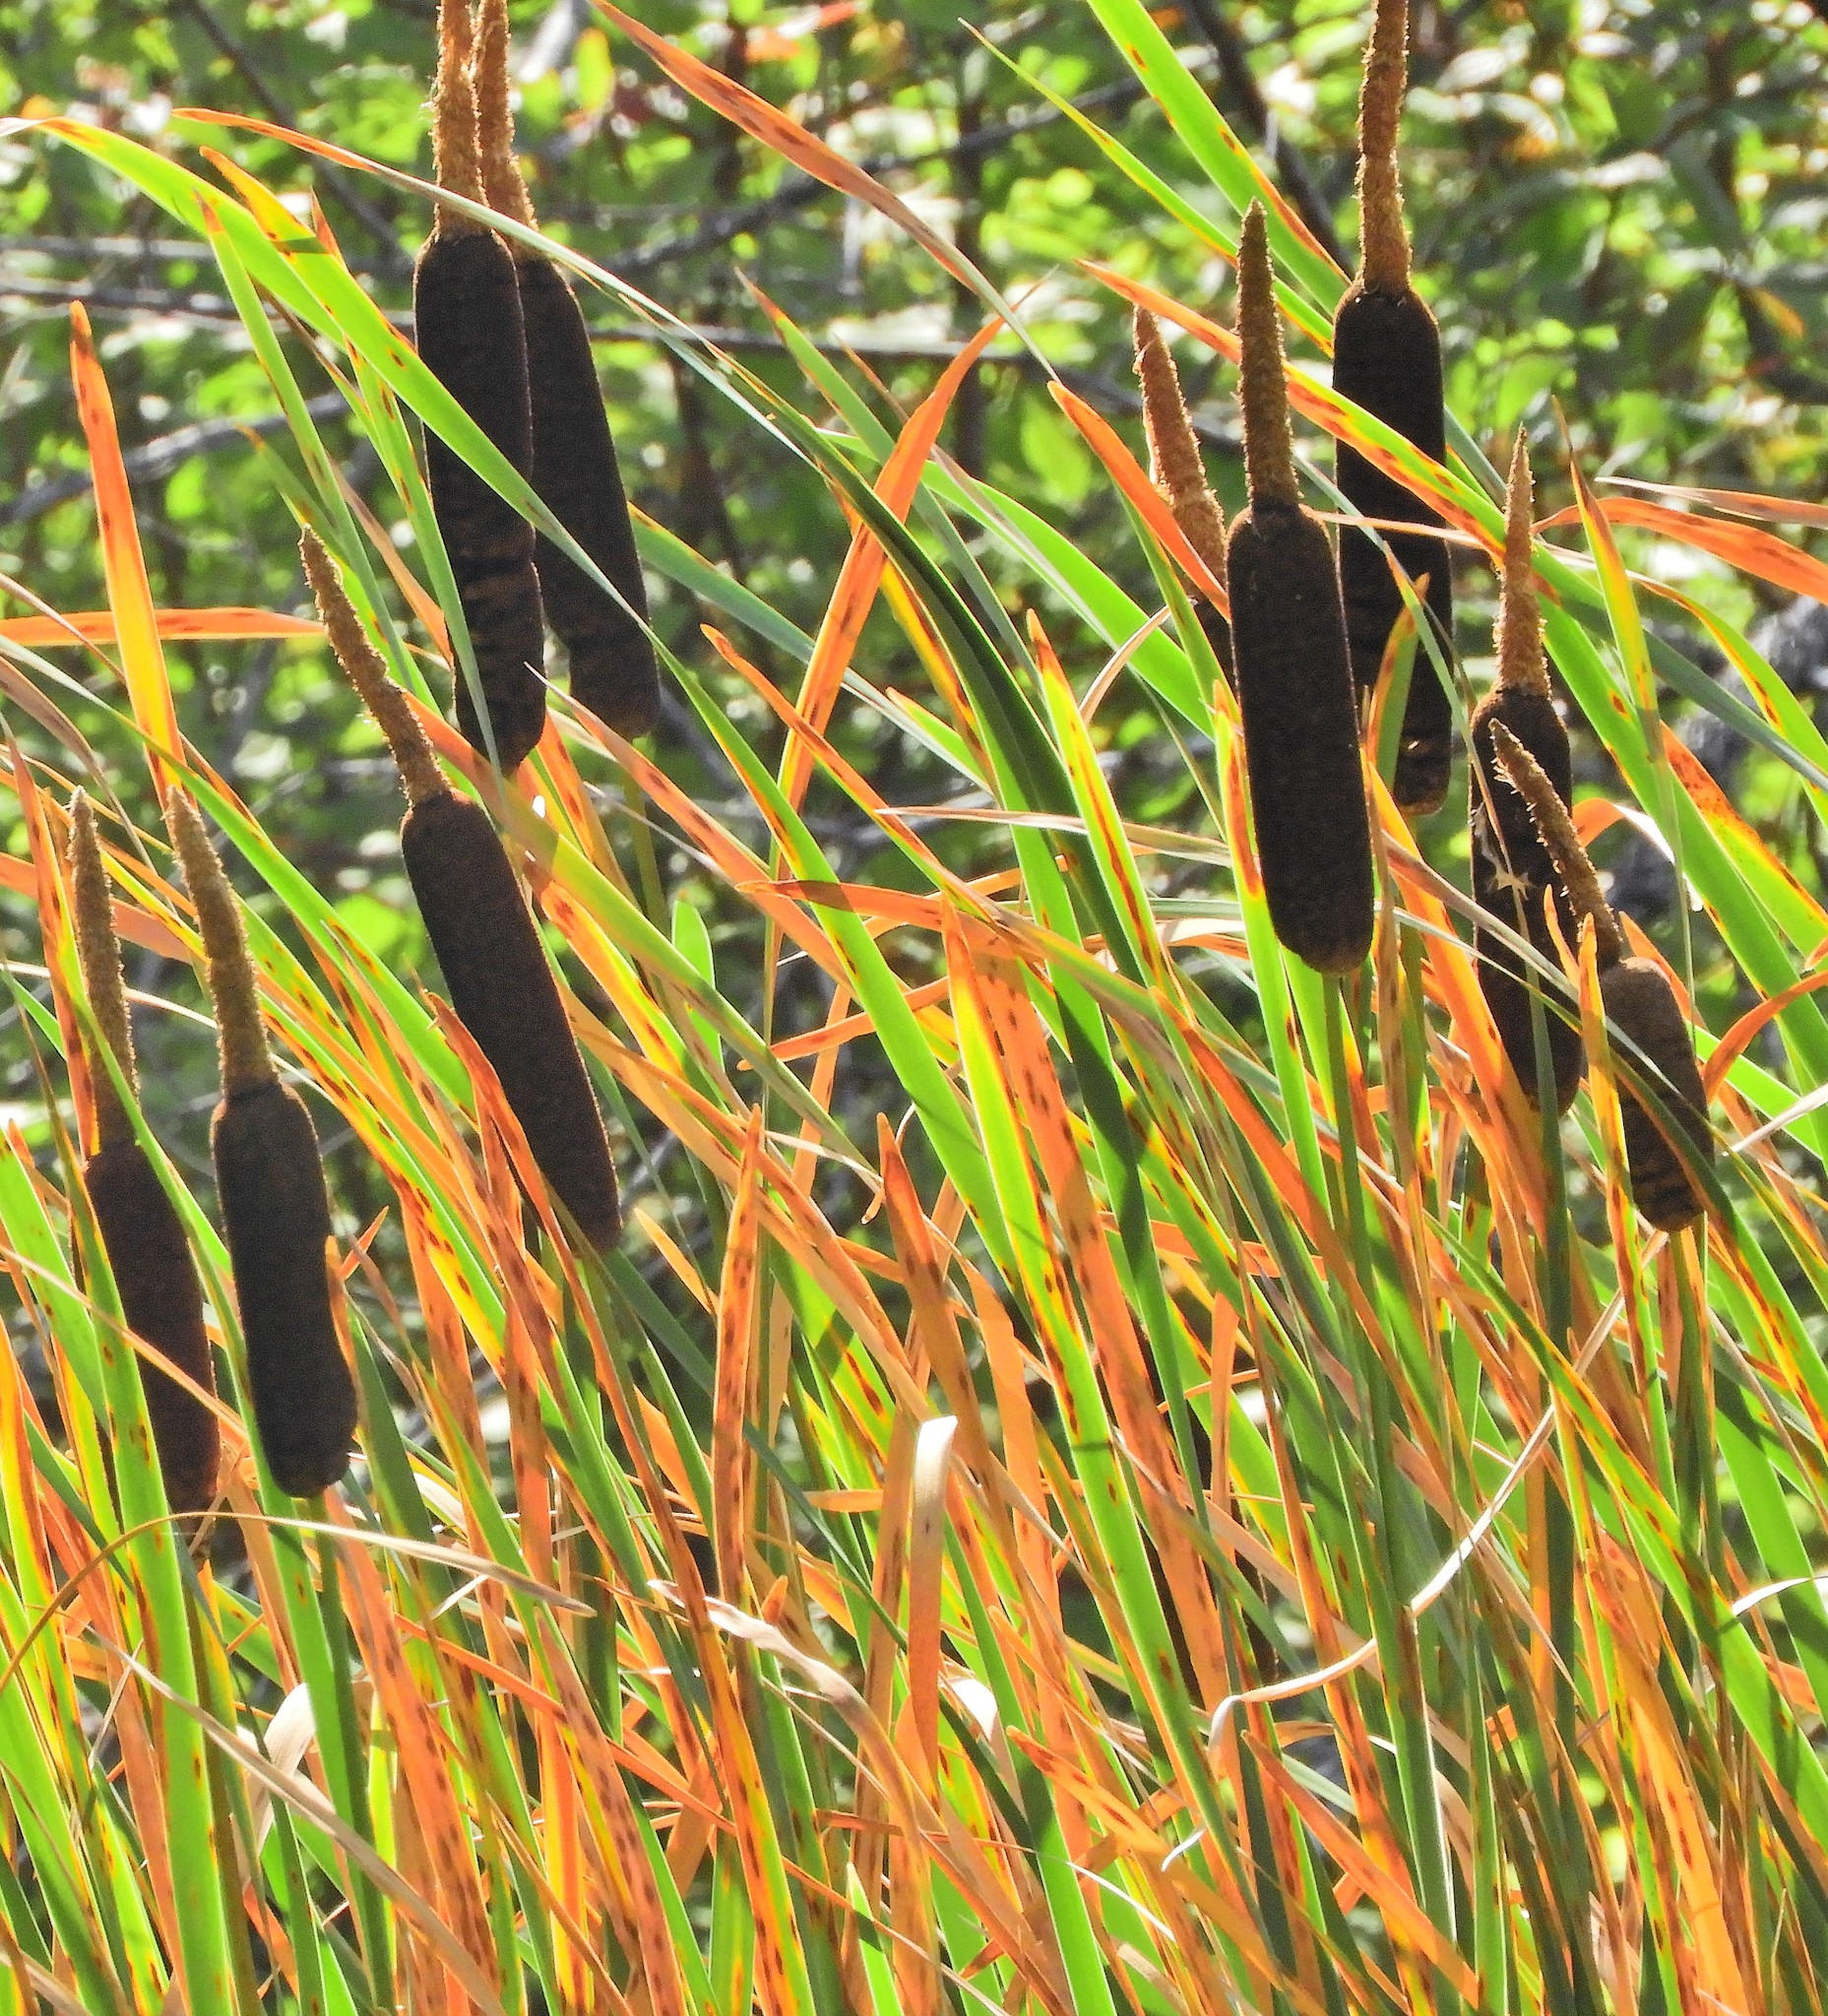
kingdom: Plantae
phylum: Tracheophyta
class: Liliopsida
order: Poales
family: Typhaceae
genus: Typha
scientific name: Typha latifolia
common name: Broadleaf cattail
